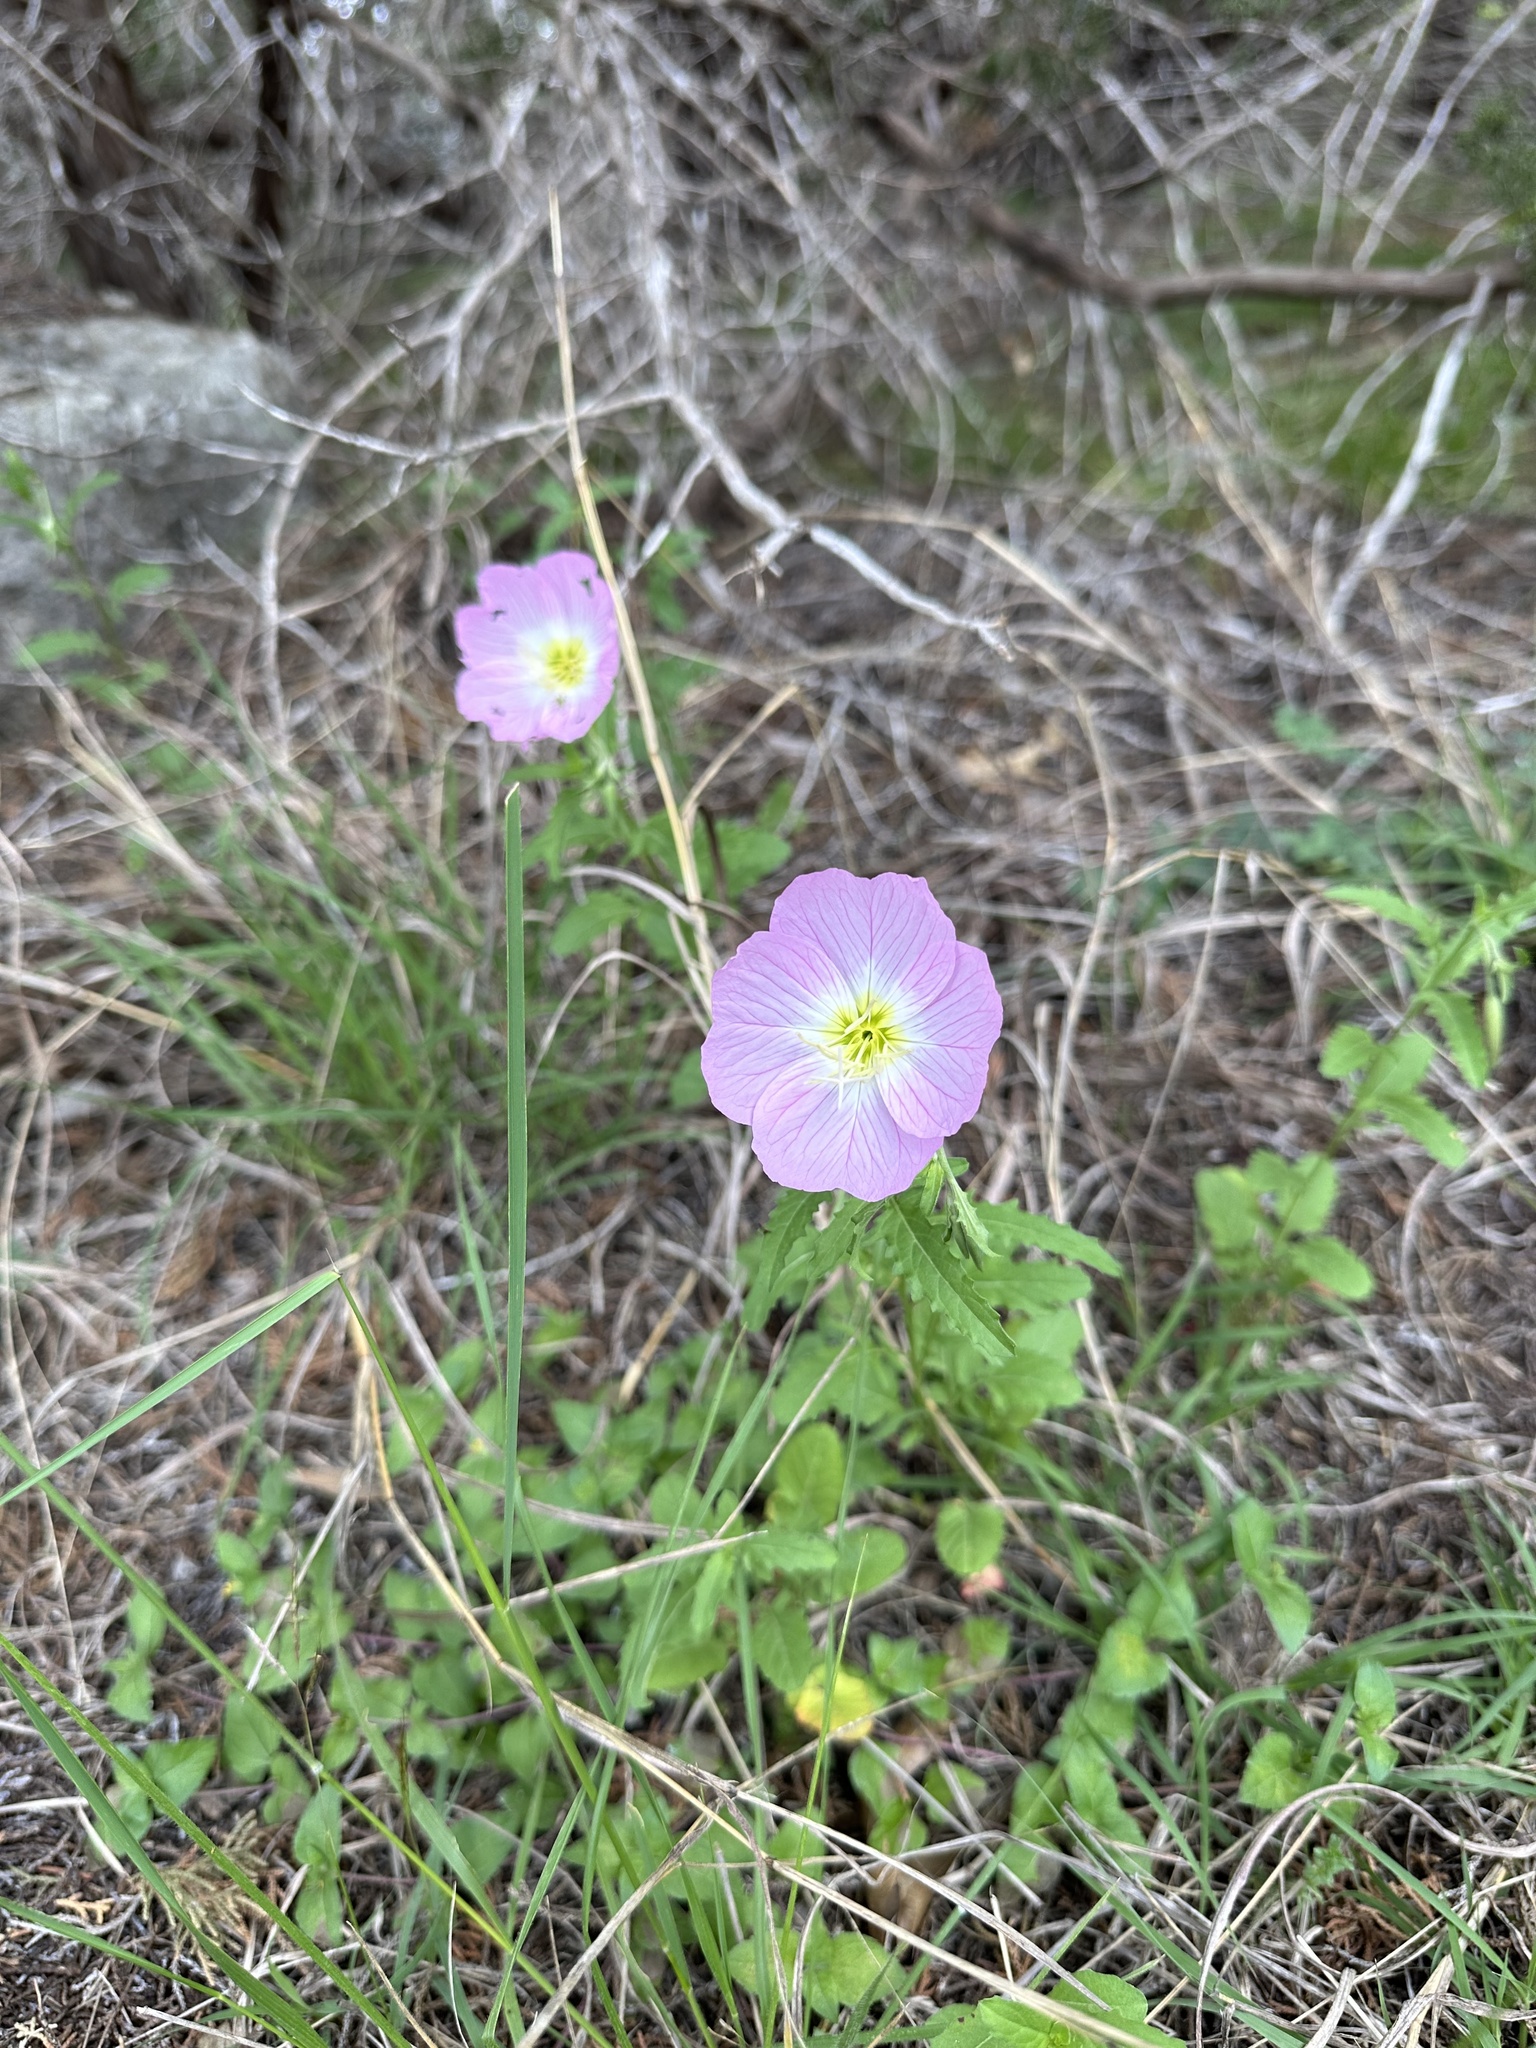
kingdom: Plantae
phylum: Tracheophyta
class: Magnoliopsida
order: Myrtales
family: Onagraceae
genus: Oenothera
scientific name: Oenothera speciosa
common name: White evening-primrose
